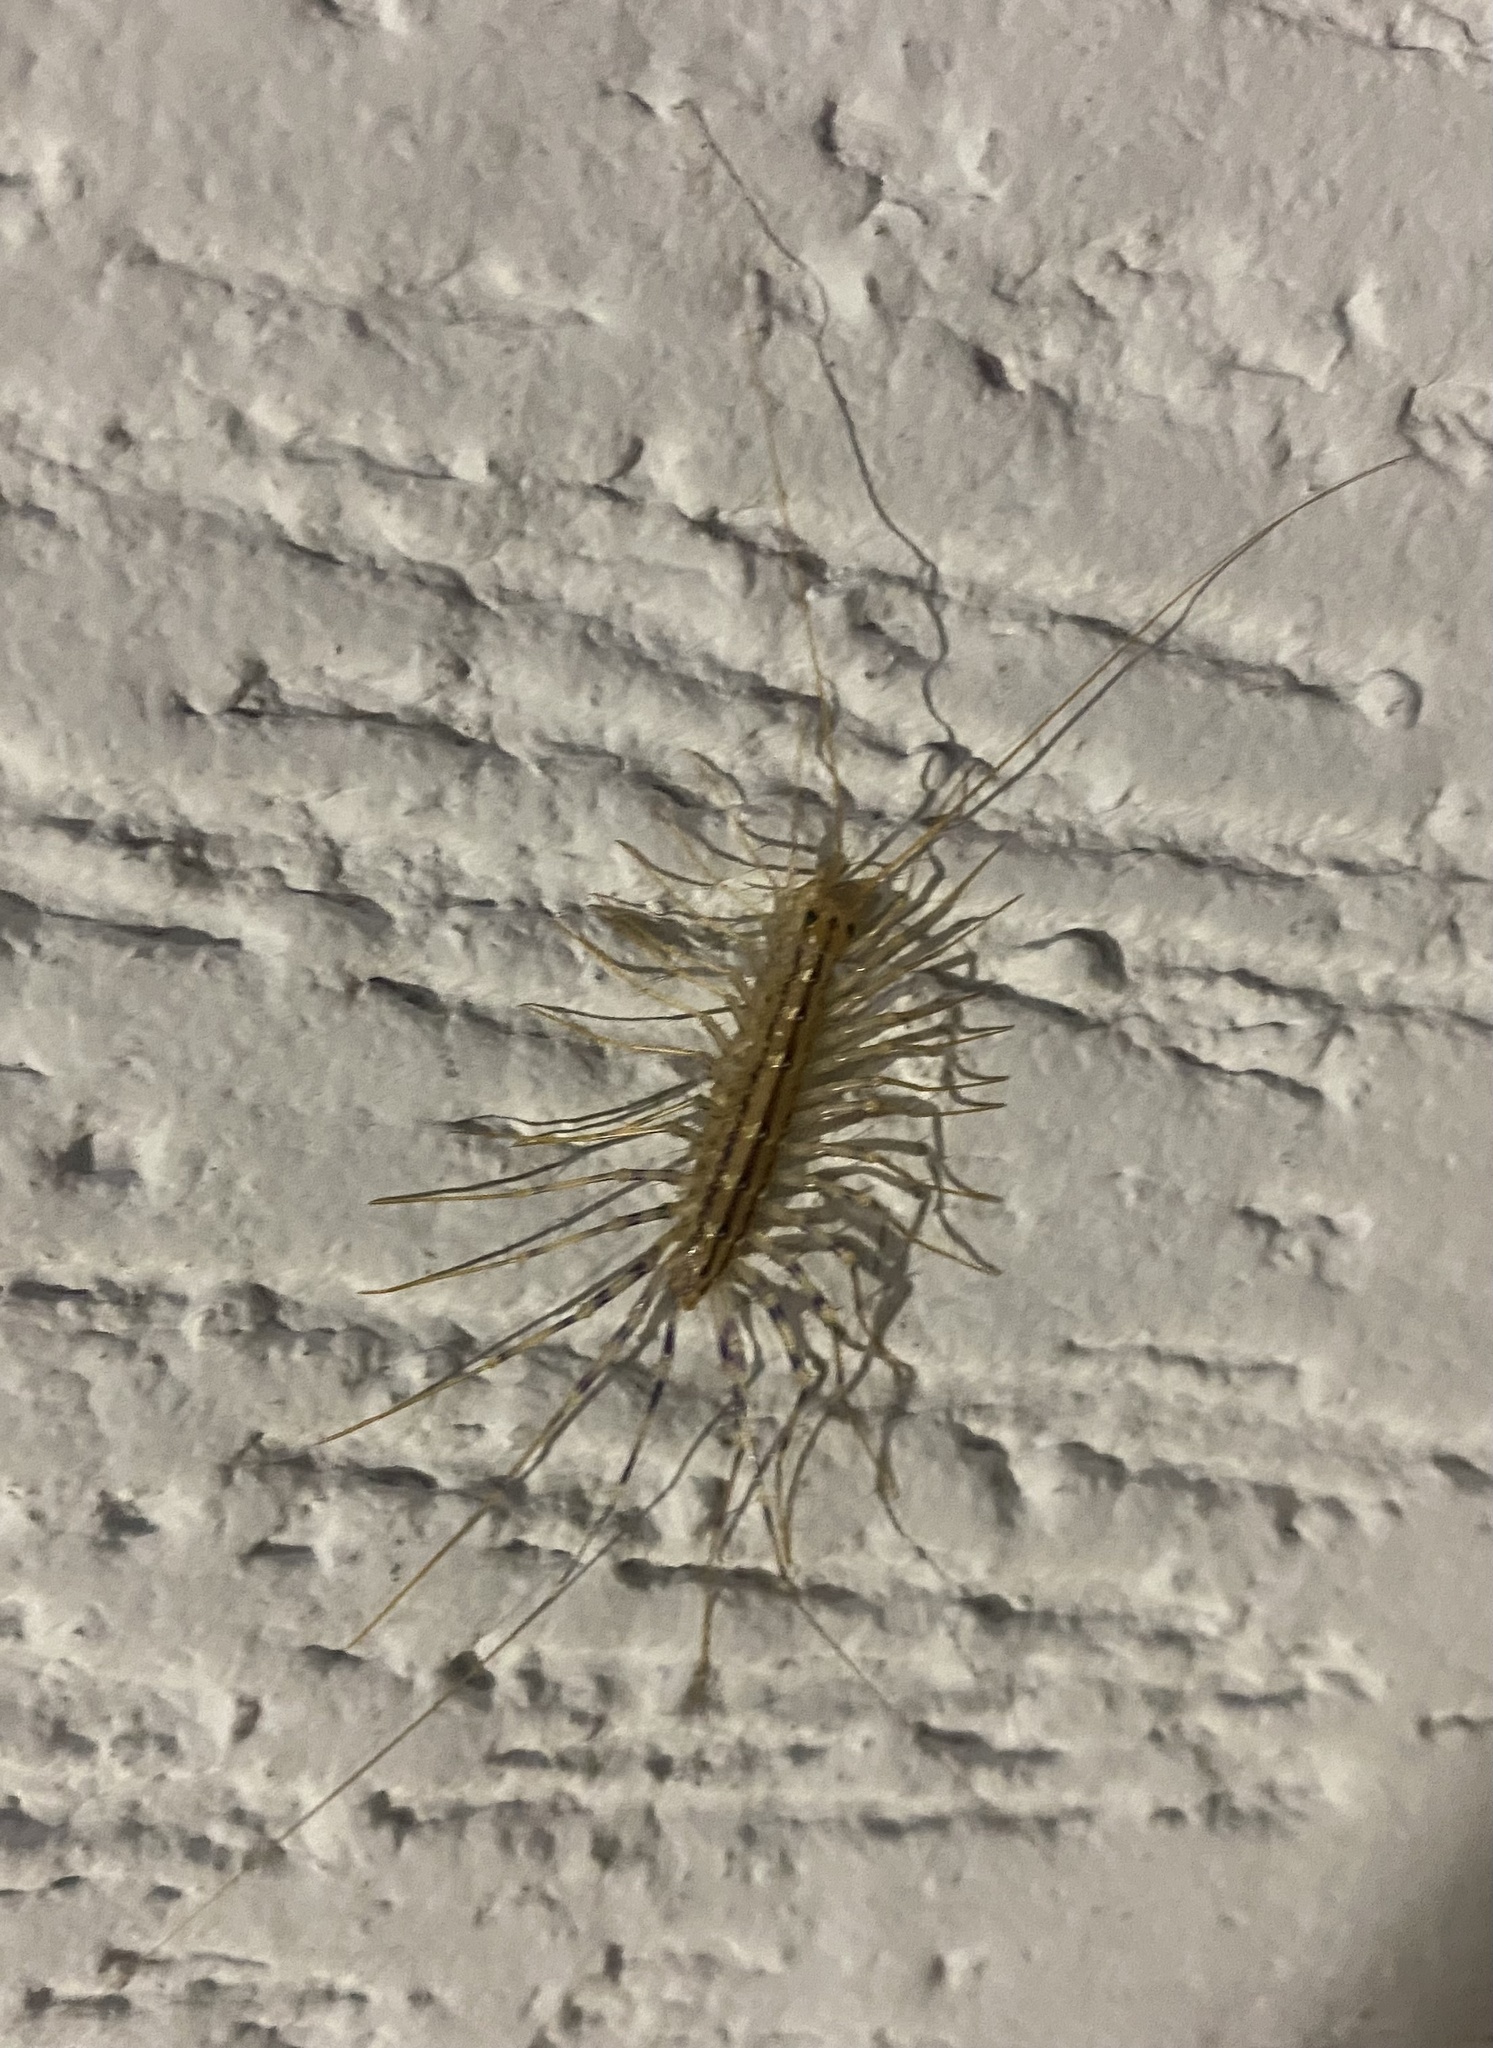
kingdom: Animalia
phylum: Arthropoda
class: Chilopoda
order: Scutigeromorpha
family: Scutigeridae
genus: Scutigera
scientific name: Scutigera coleoptrata
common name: House centipede
